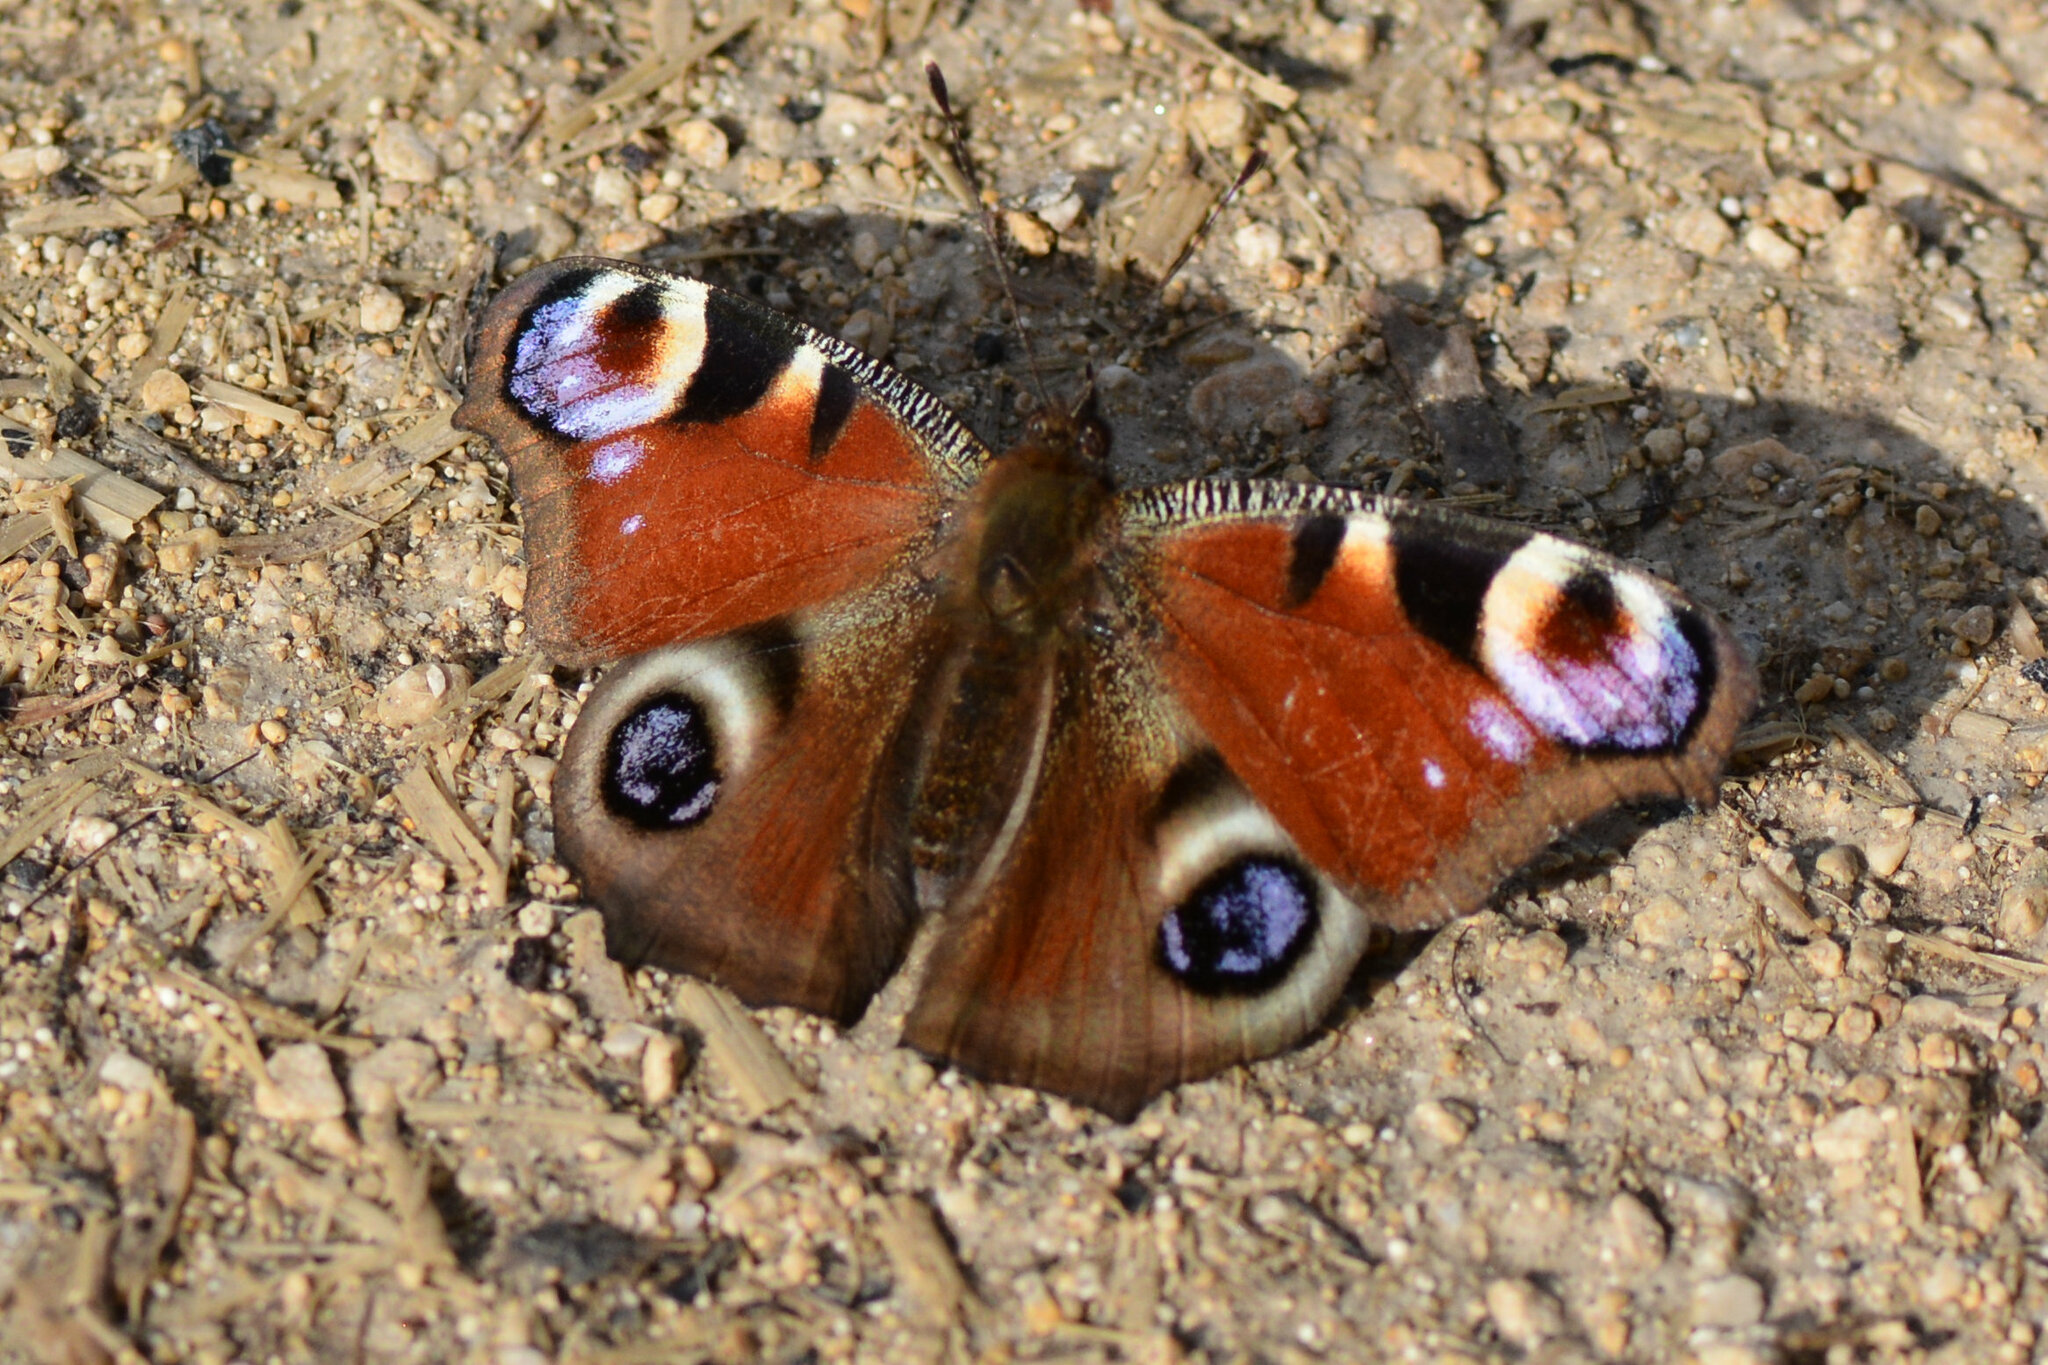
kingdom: Animalia
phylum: Arthropoda
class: Insecta
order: Lepidoptera
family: Nymphalidae
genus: Aglais
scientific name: Aglais io
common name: Peacock
